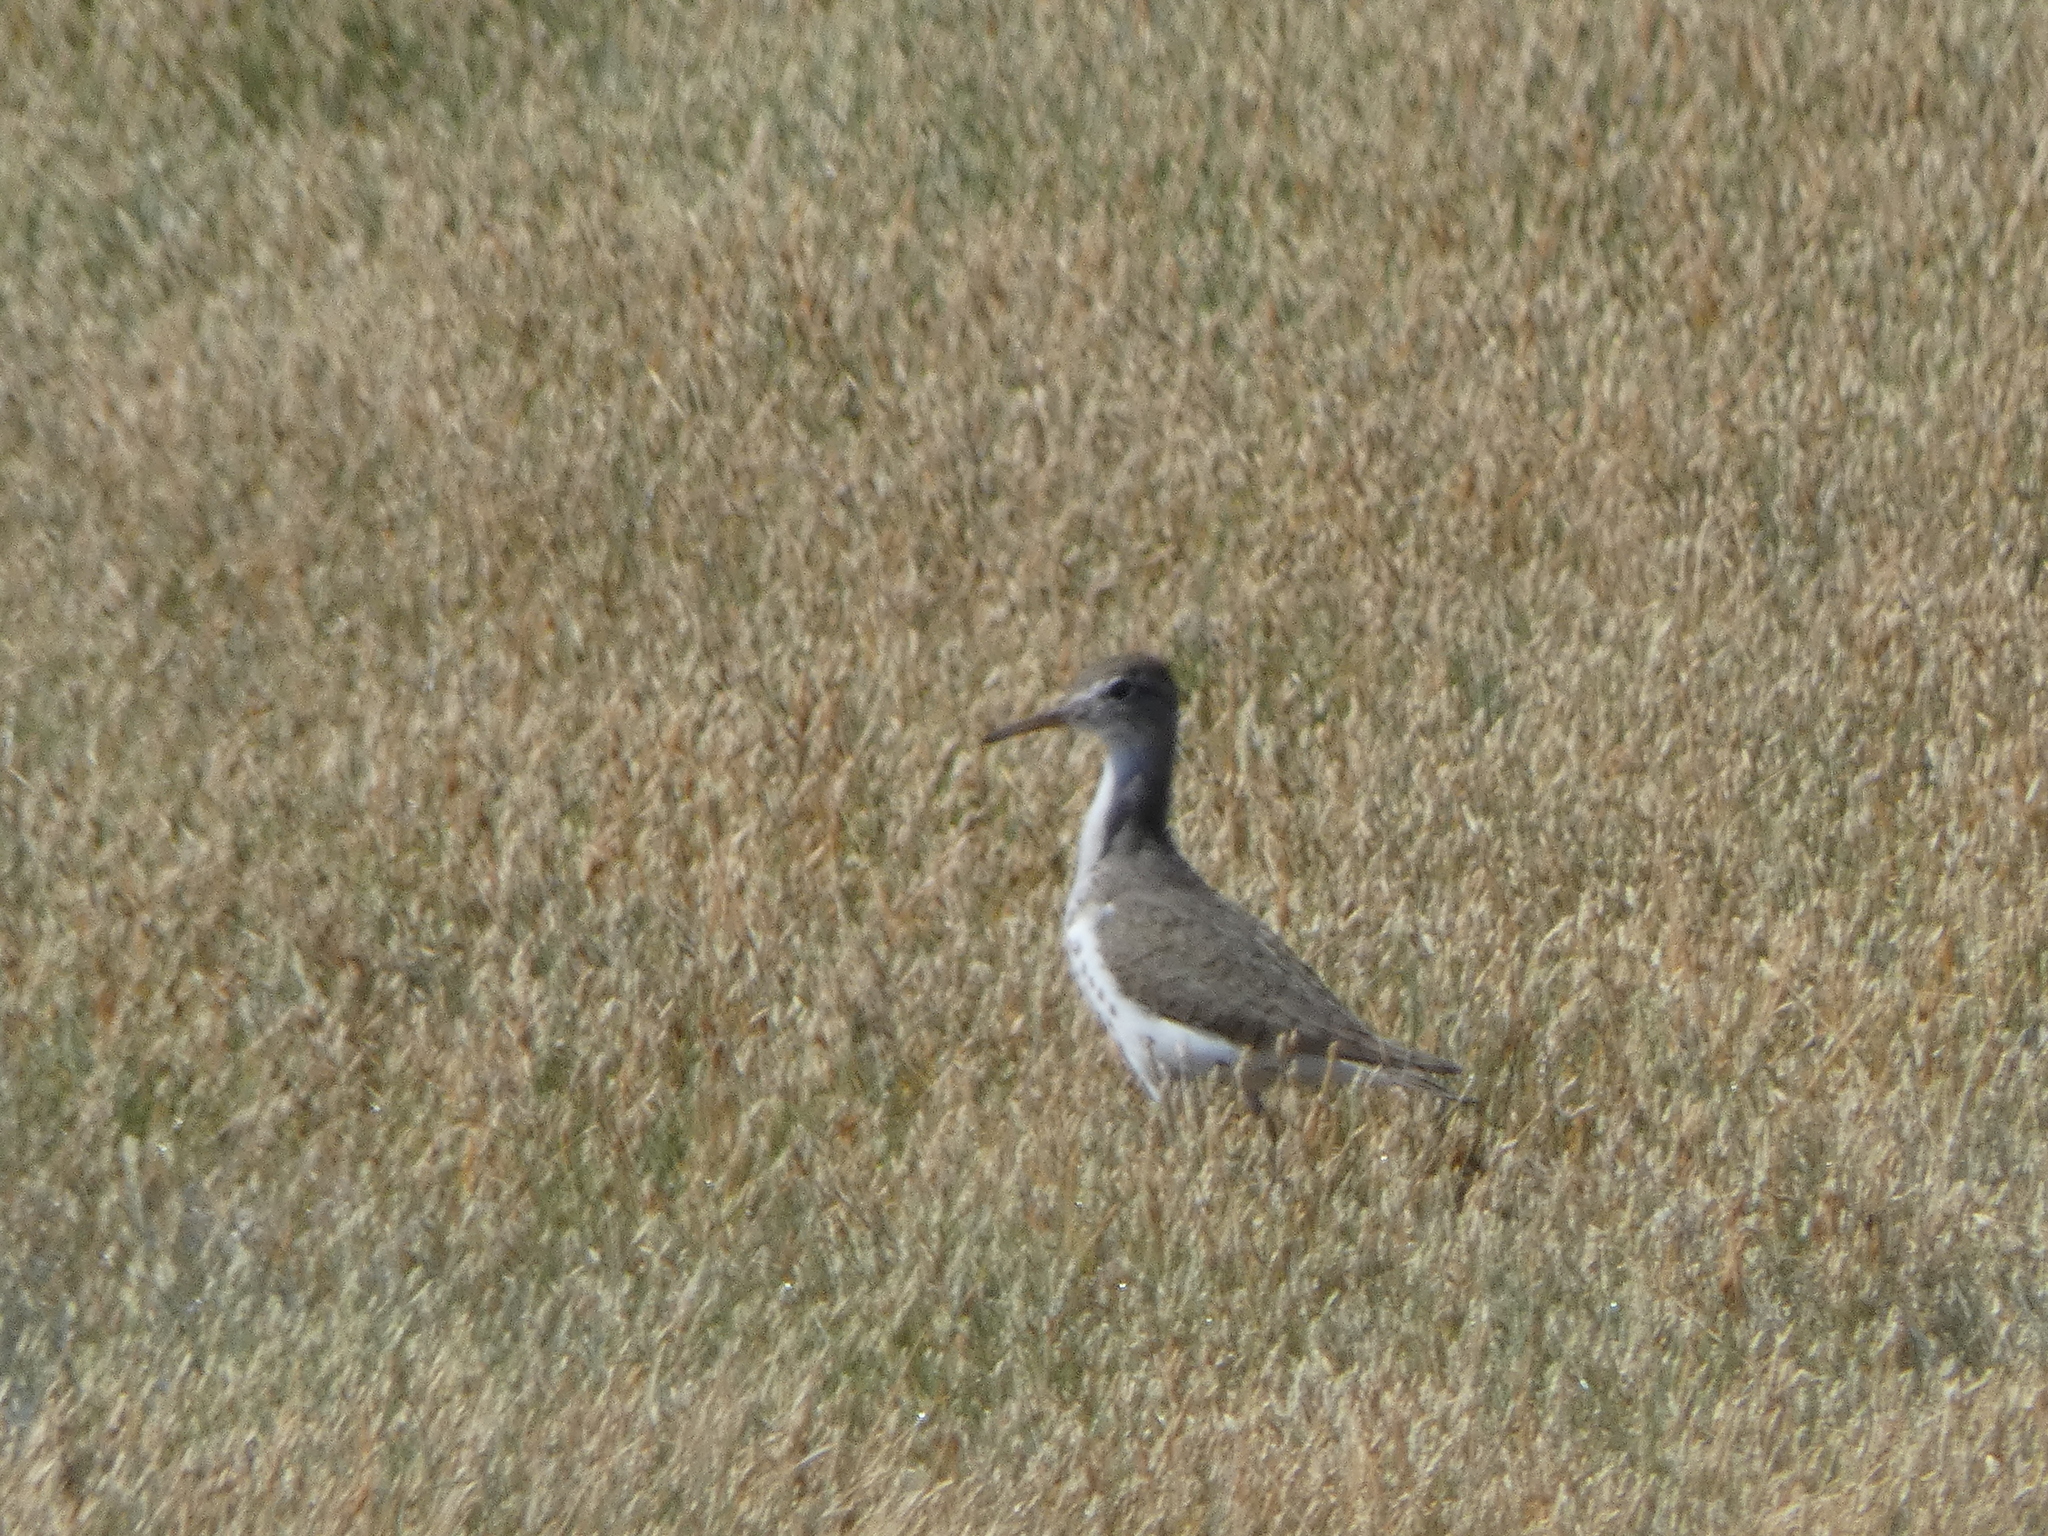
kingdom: Animalia
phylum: Chordata
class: Aves
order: Charadriiformes
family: Scolopacidae
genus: Actitis
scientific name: Actitis macularius
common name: Spotted sandpiper
